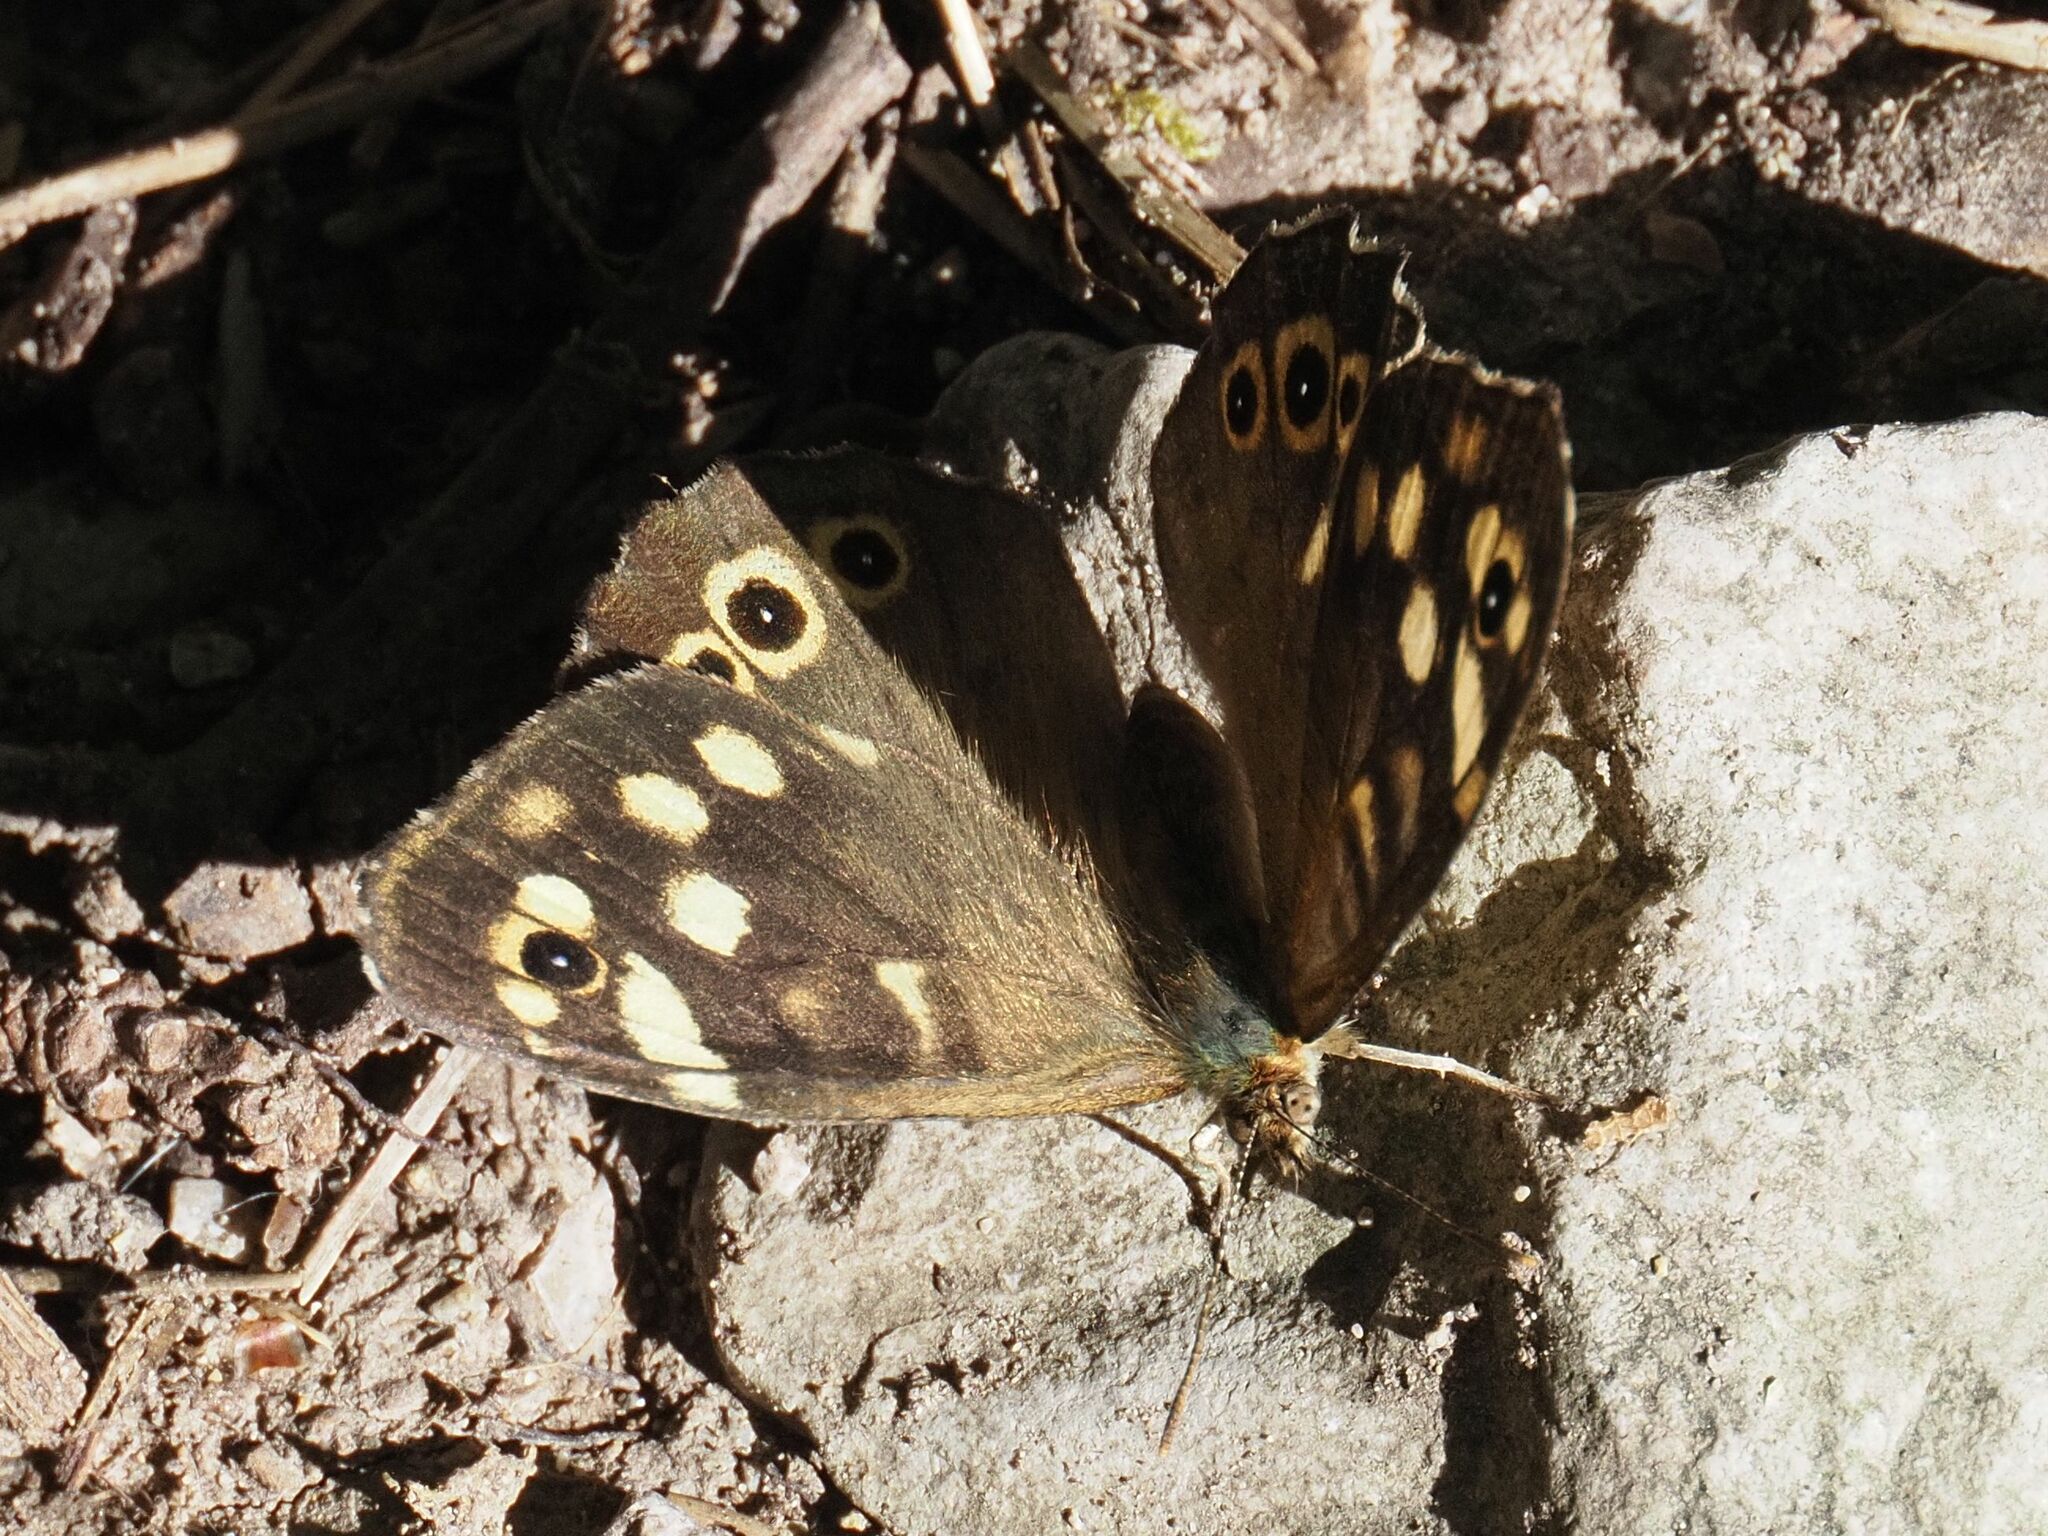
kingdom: Animalia
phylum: Arthropoda
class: Insecta
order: Lepidoptera
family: Nymphalidae
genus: Pararge
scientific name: Pararge aegeria
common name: Speckled wood
